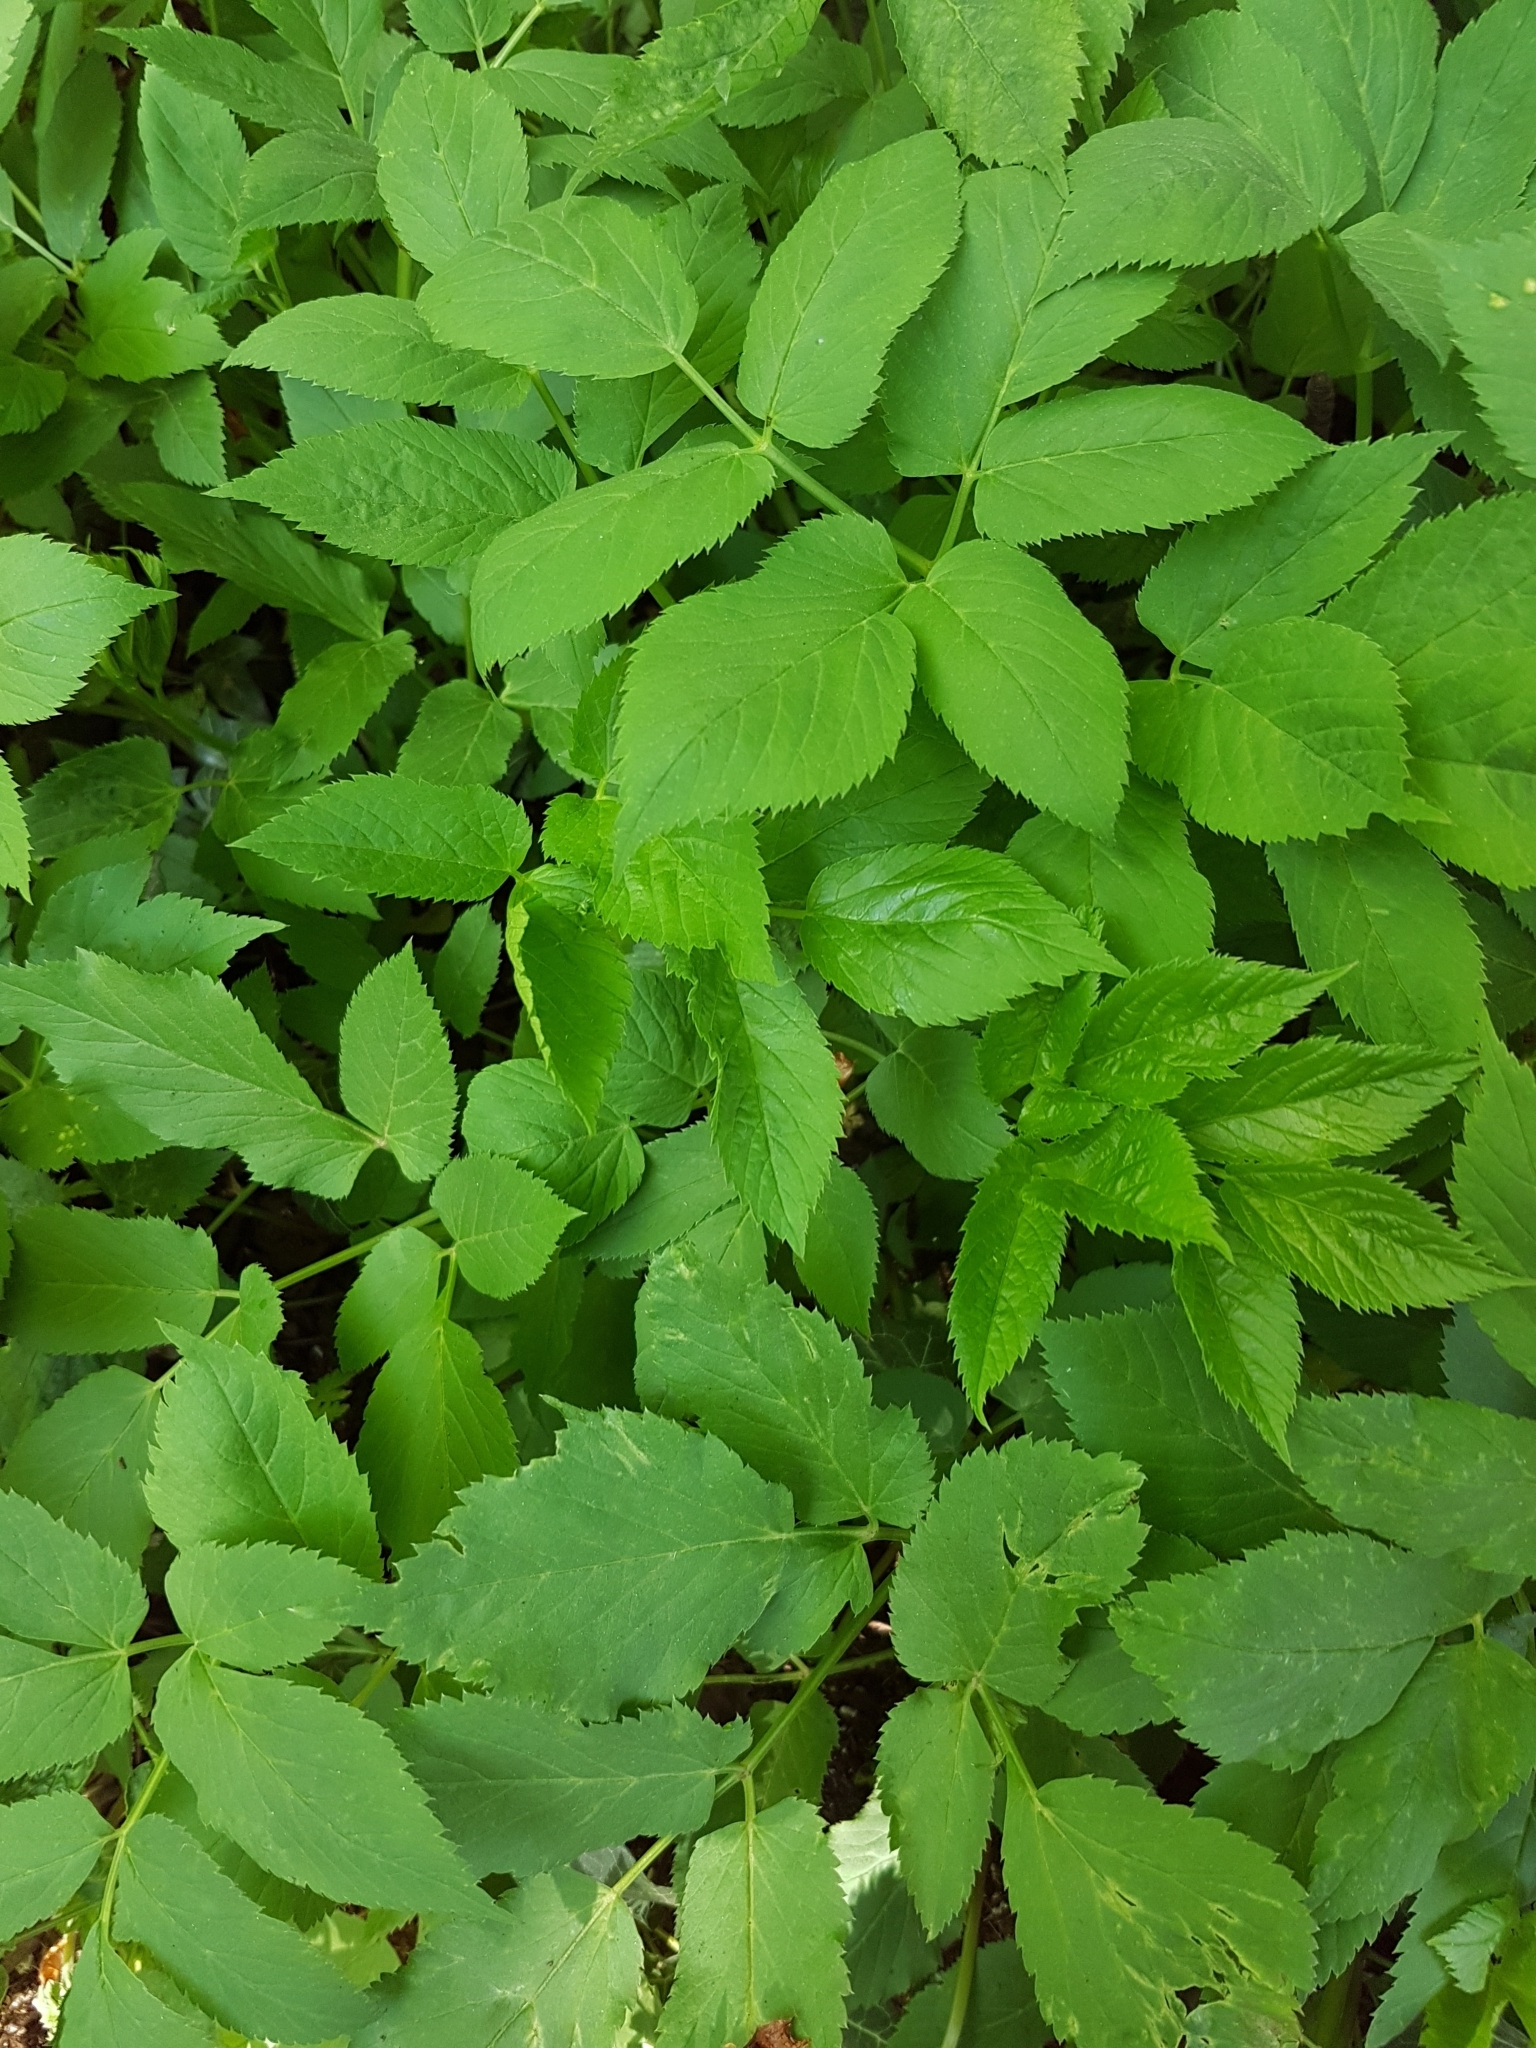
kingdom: Plantae
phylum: Tracheophyta
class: Magnoliopsida
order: Apiales
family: Apiaceae
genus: Aegopodium
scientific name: Aegopodium podagraria
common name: Ground-elder
